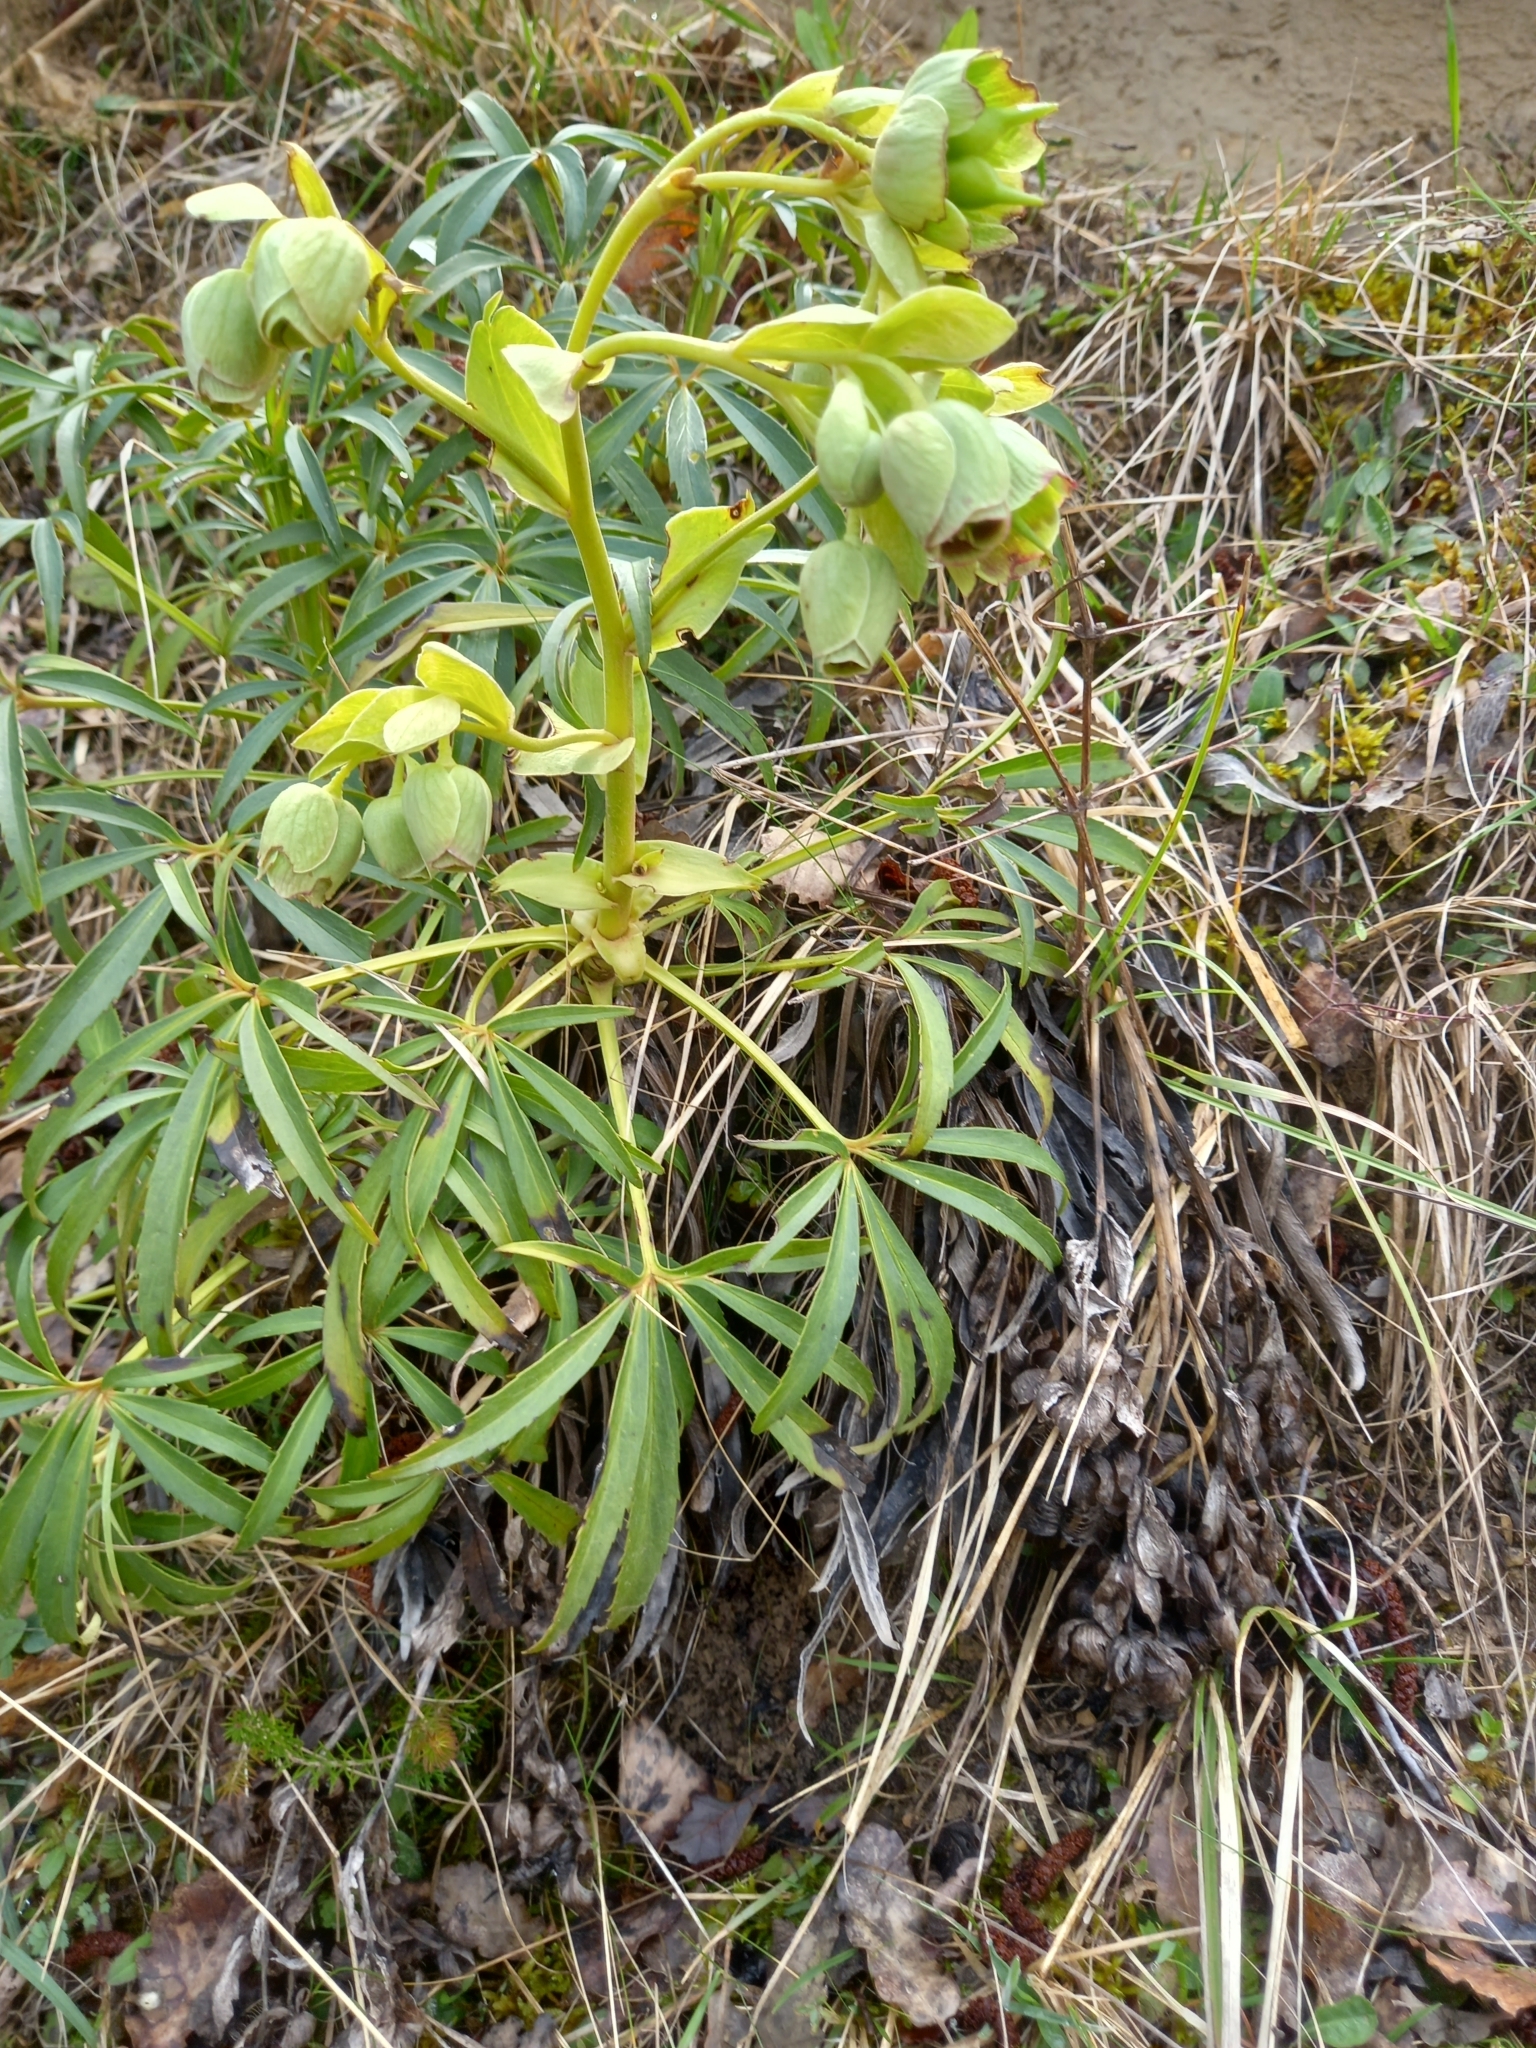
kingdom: Plantae
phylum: Tracheophyta
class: Magnoliopsida
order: Ranunculales
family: Ranunculaceae
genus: Helleborus
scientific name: Helleborus foetidus
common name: Stinking hellebore
